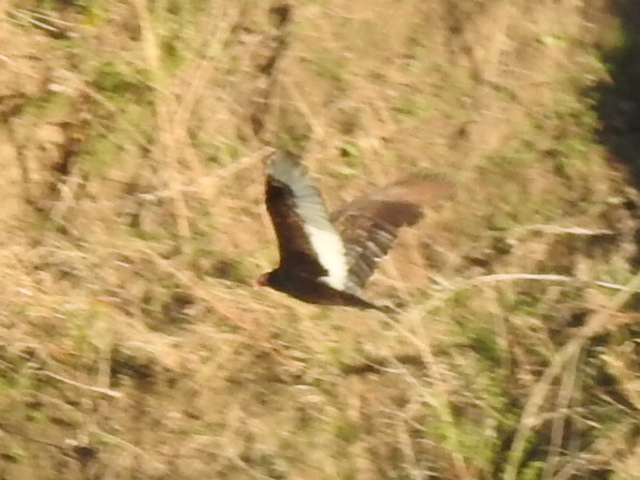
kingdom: Animalia
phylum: Chordata
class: Aves
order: Accipitriformes
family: Cathartidae
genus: Cathartes
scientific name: Cathartes aura
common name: Turkey vulture
